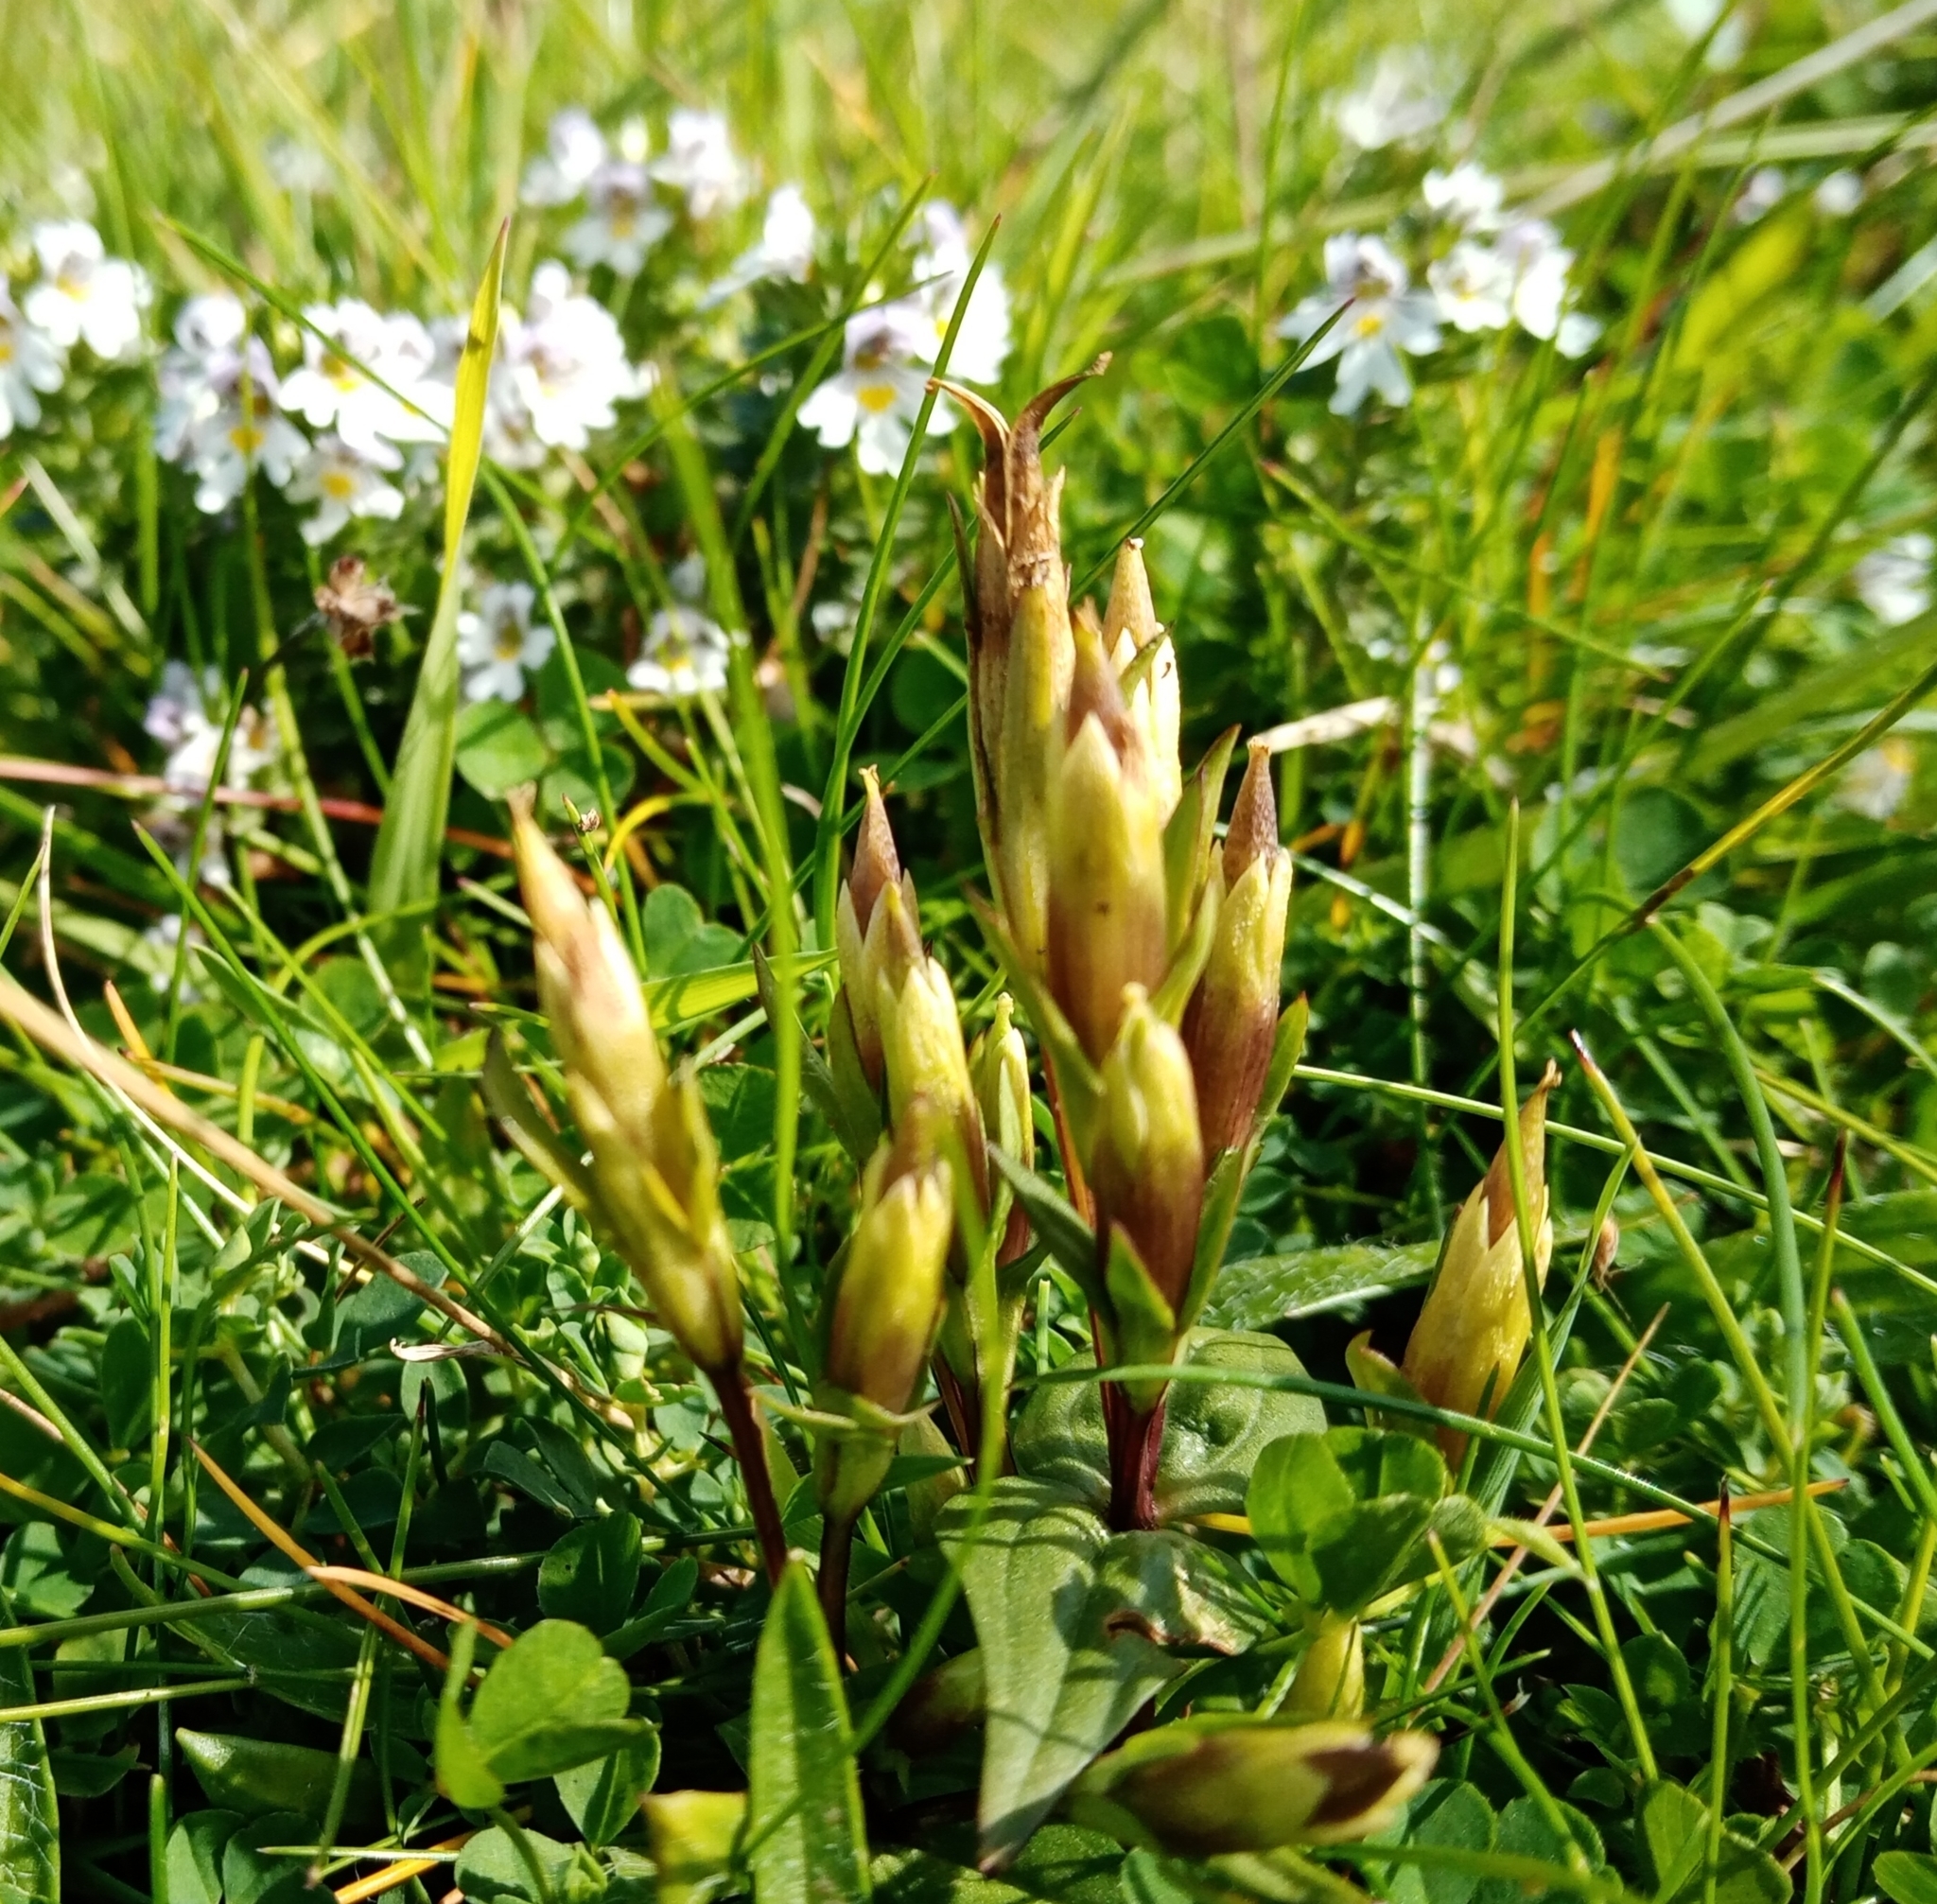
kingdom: Plantae
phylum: Tracheophyta
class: Magnoliopsida
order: Gentianales
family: Gentianaceae
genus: Gentianella
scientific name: Gentianella amarella
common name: Autumn gentian
